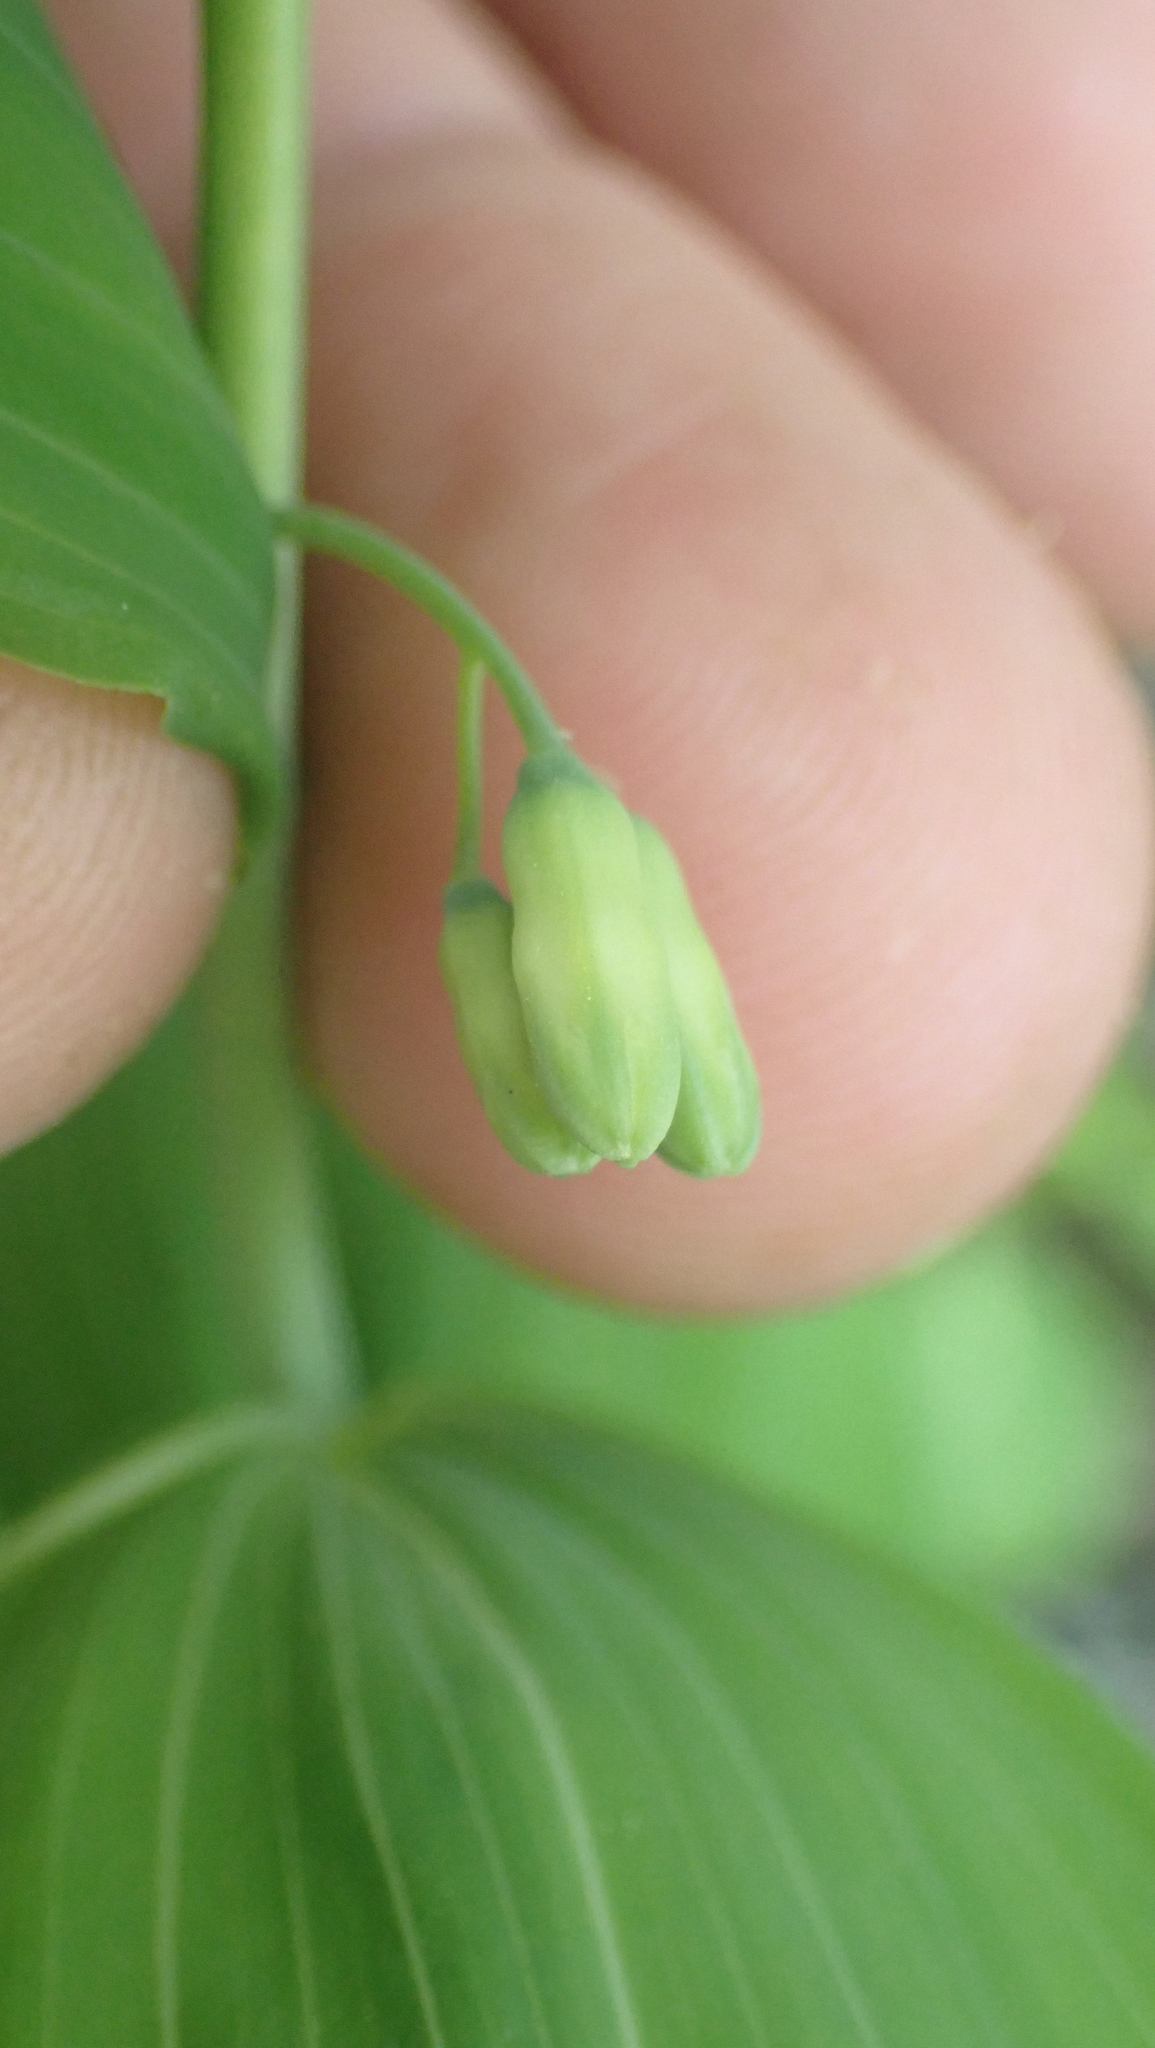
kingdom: Plantae
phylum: Tracheophyta
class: Liliopsida
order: Asparagales
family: Asparagaceae
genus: Polygonatum
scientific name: Polygonatum biflorum
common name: American solomon's-seal
